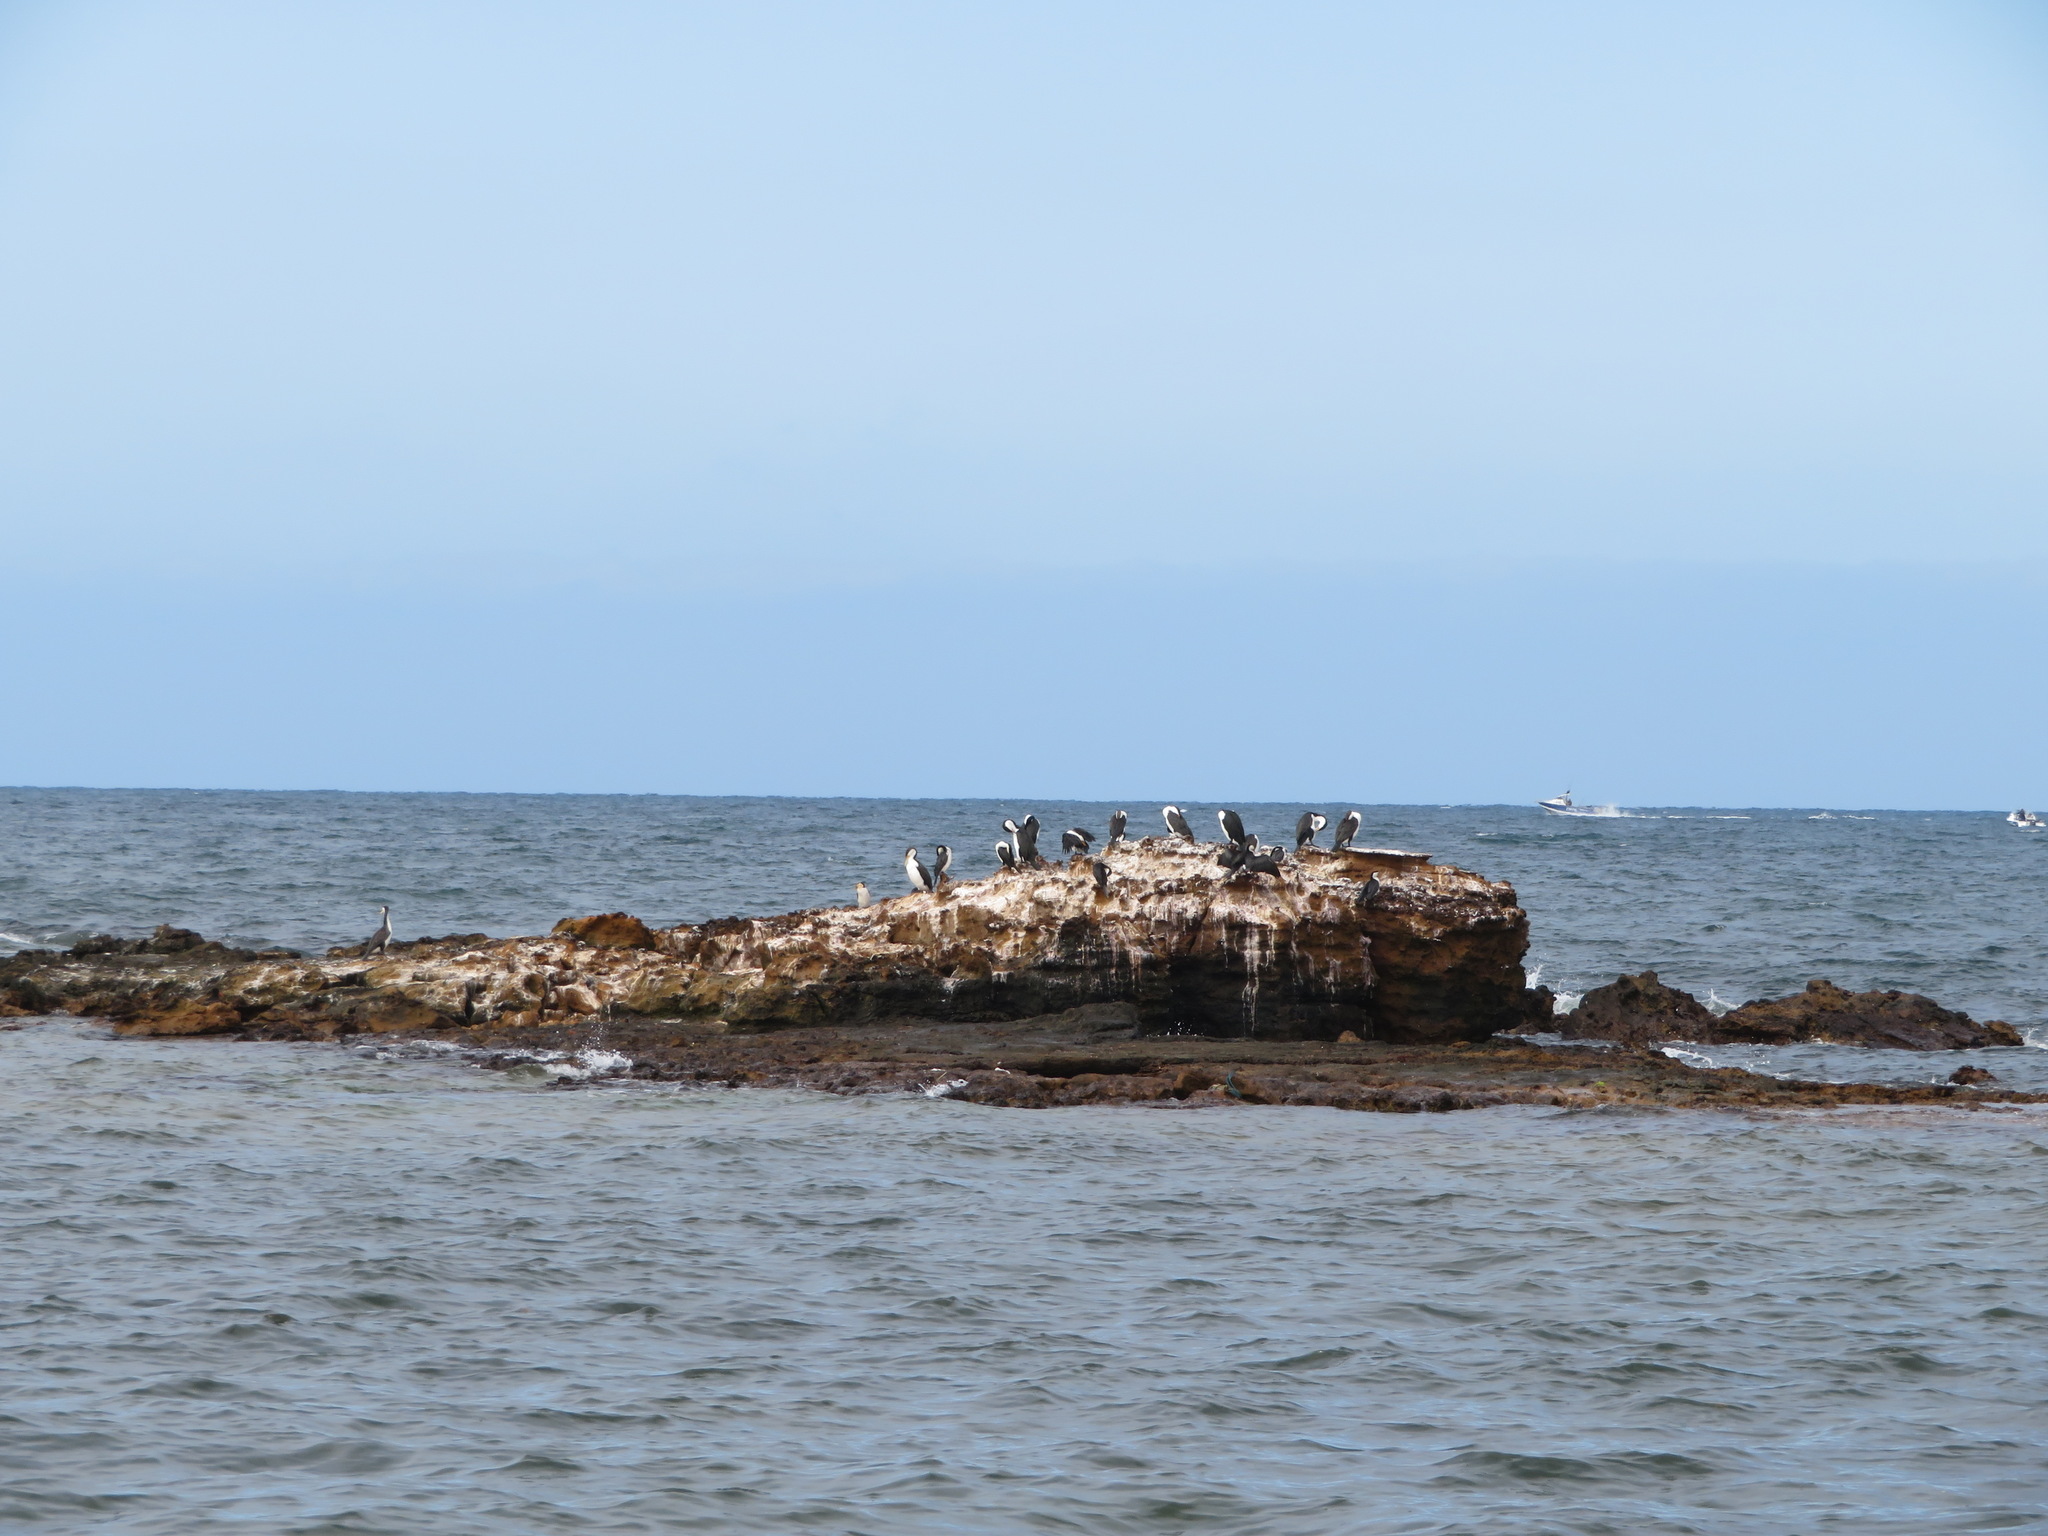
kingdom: Animalia
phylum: Chordata
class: Aves
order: Suliformes
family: Phalacrocoracidae
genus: Phalacrocorax
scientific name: Phalacrocorax varius
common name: Pied cormorant
